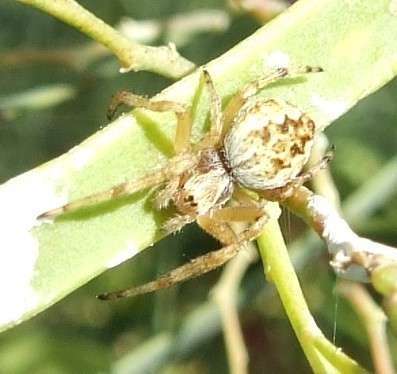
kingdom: Animalia
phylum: Arthropoda
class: Arachnida
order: Araneae
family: Araneidae
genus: Salsa
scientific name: Salsa fuliginata
